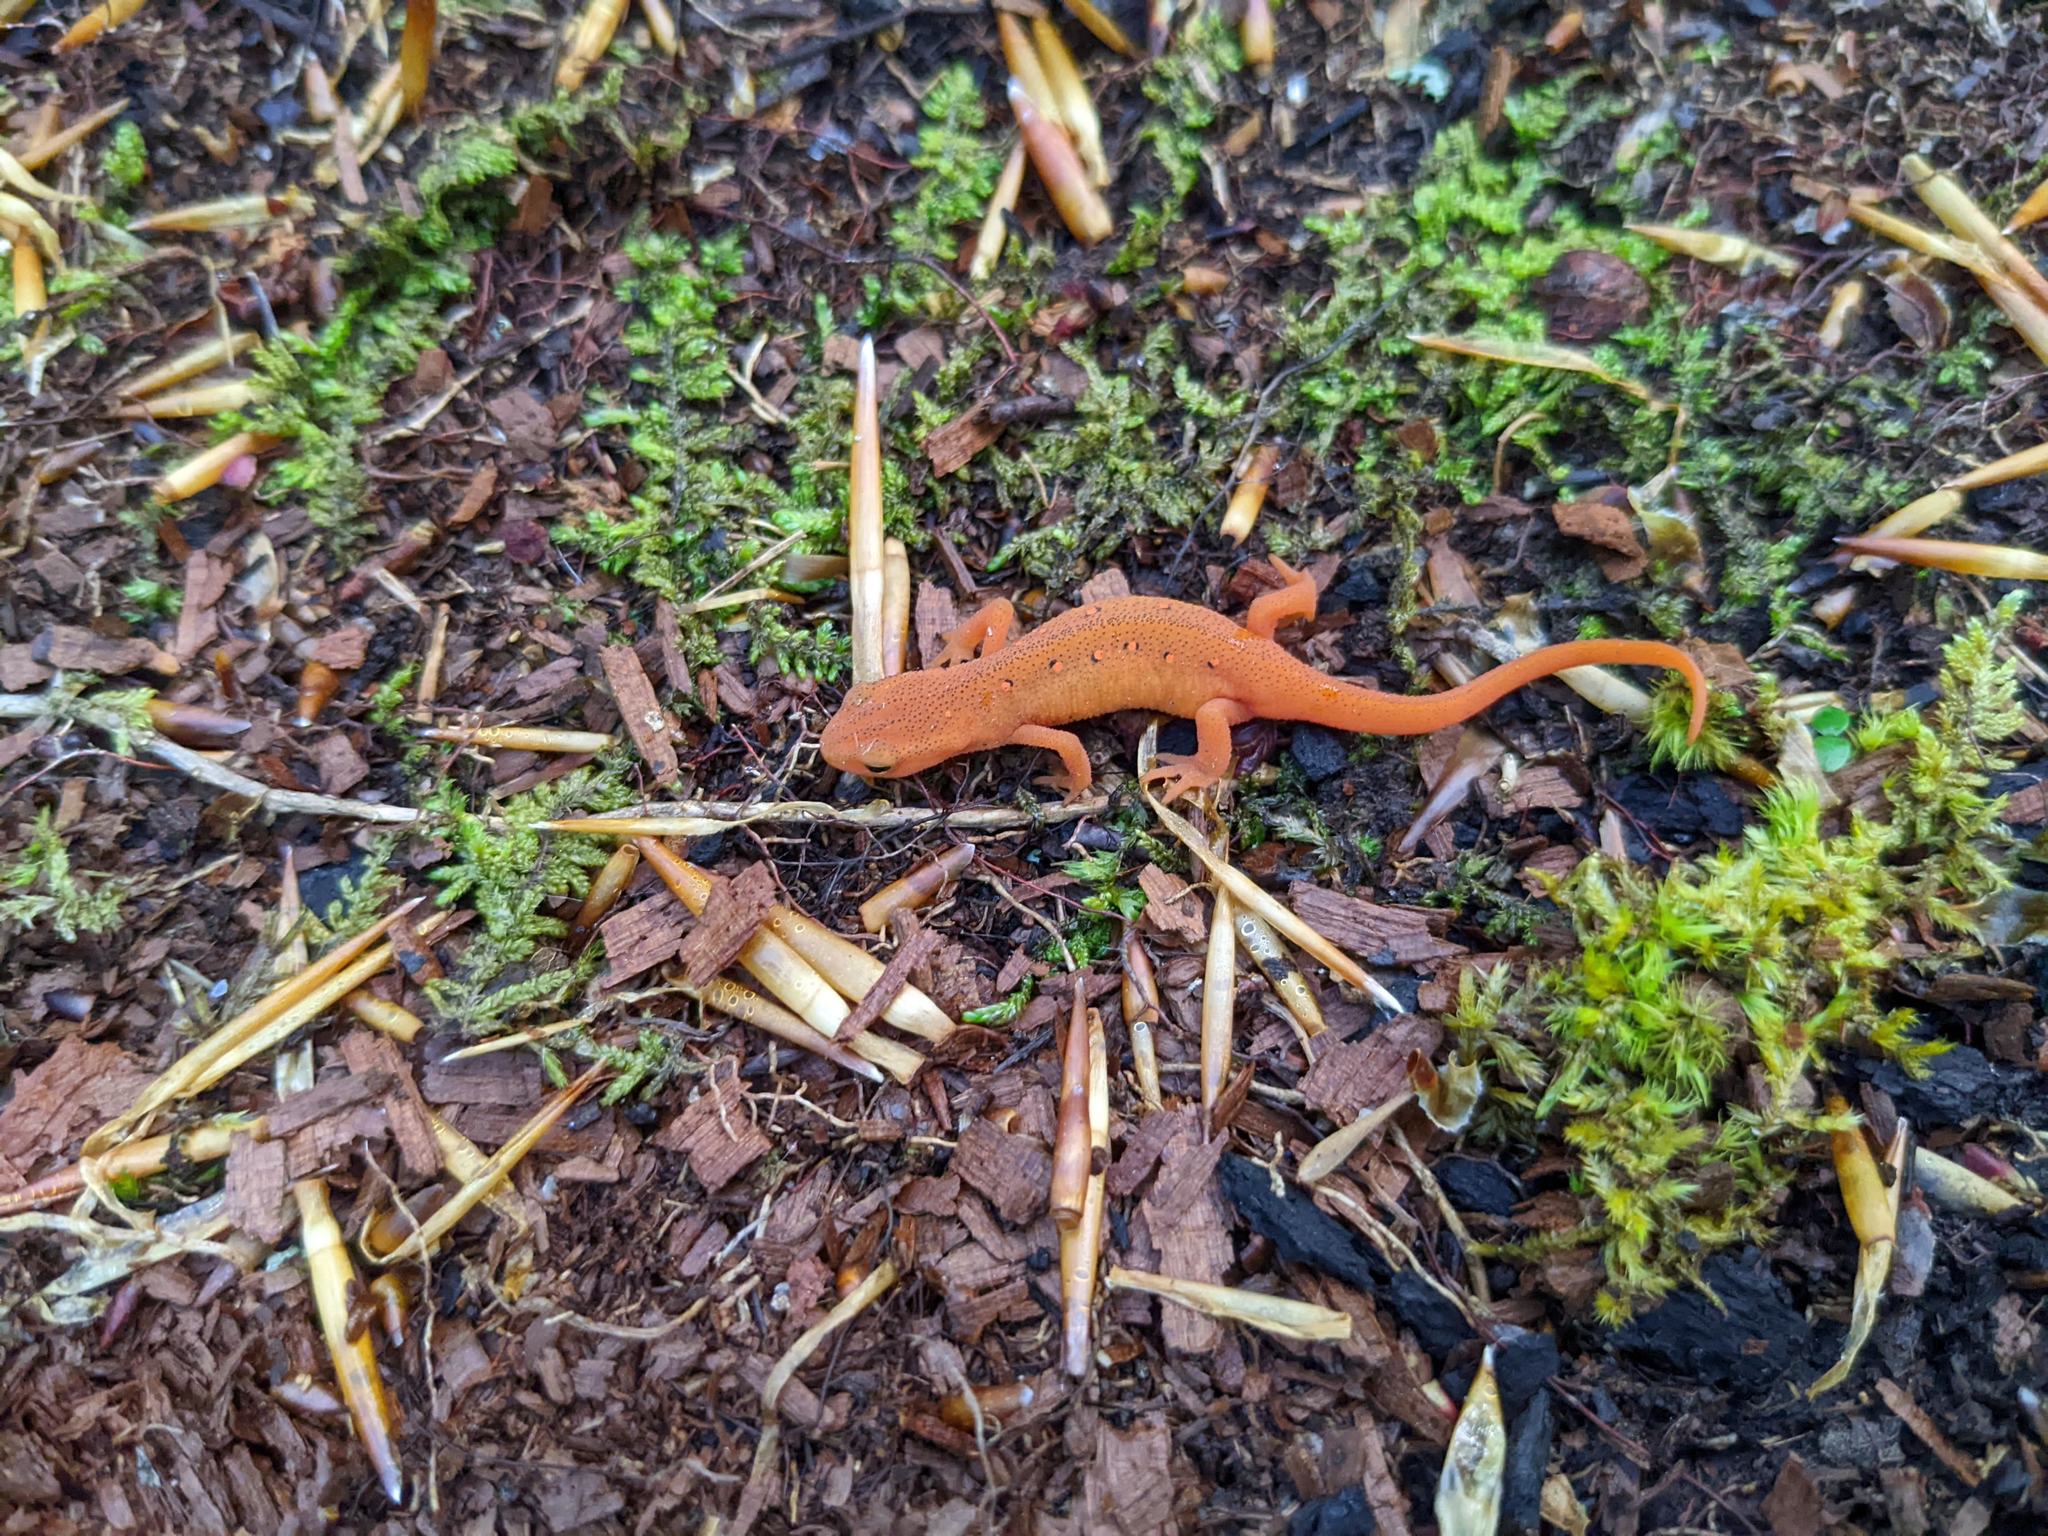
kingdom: Animalia
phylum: Chordata
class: Amphibia
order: Caudata
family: Salamandridae
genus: Notophthalmus
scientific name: Notophthalmus viridescens
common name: Eastern newt
